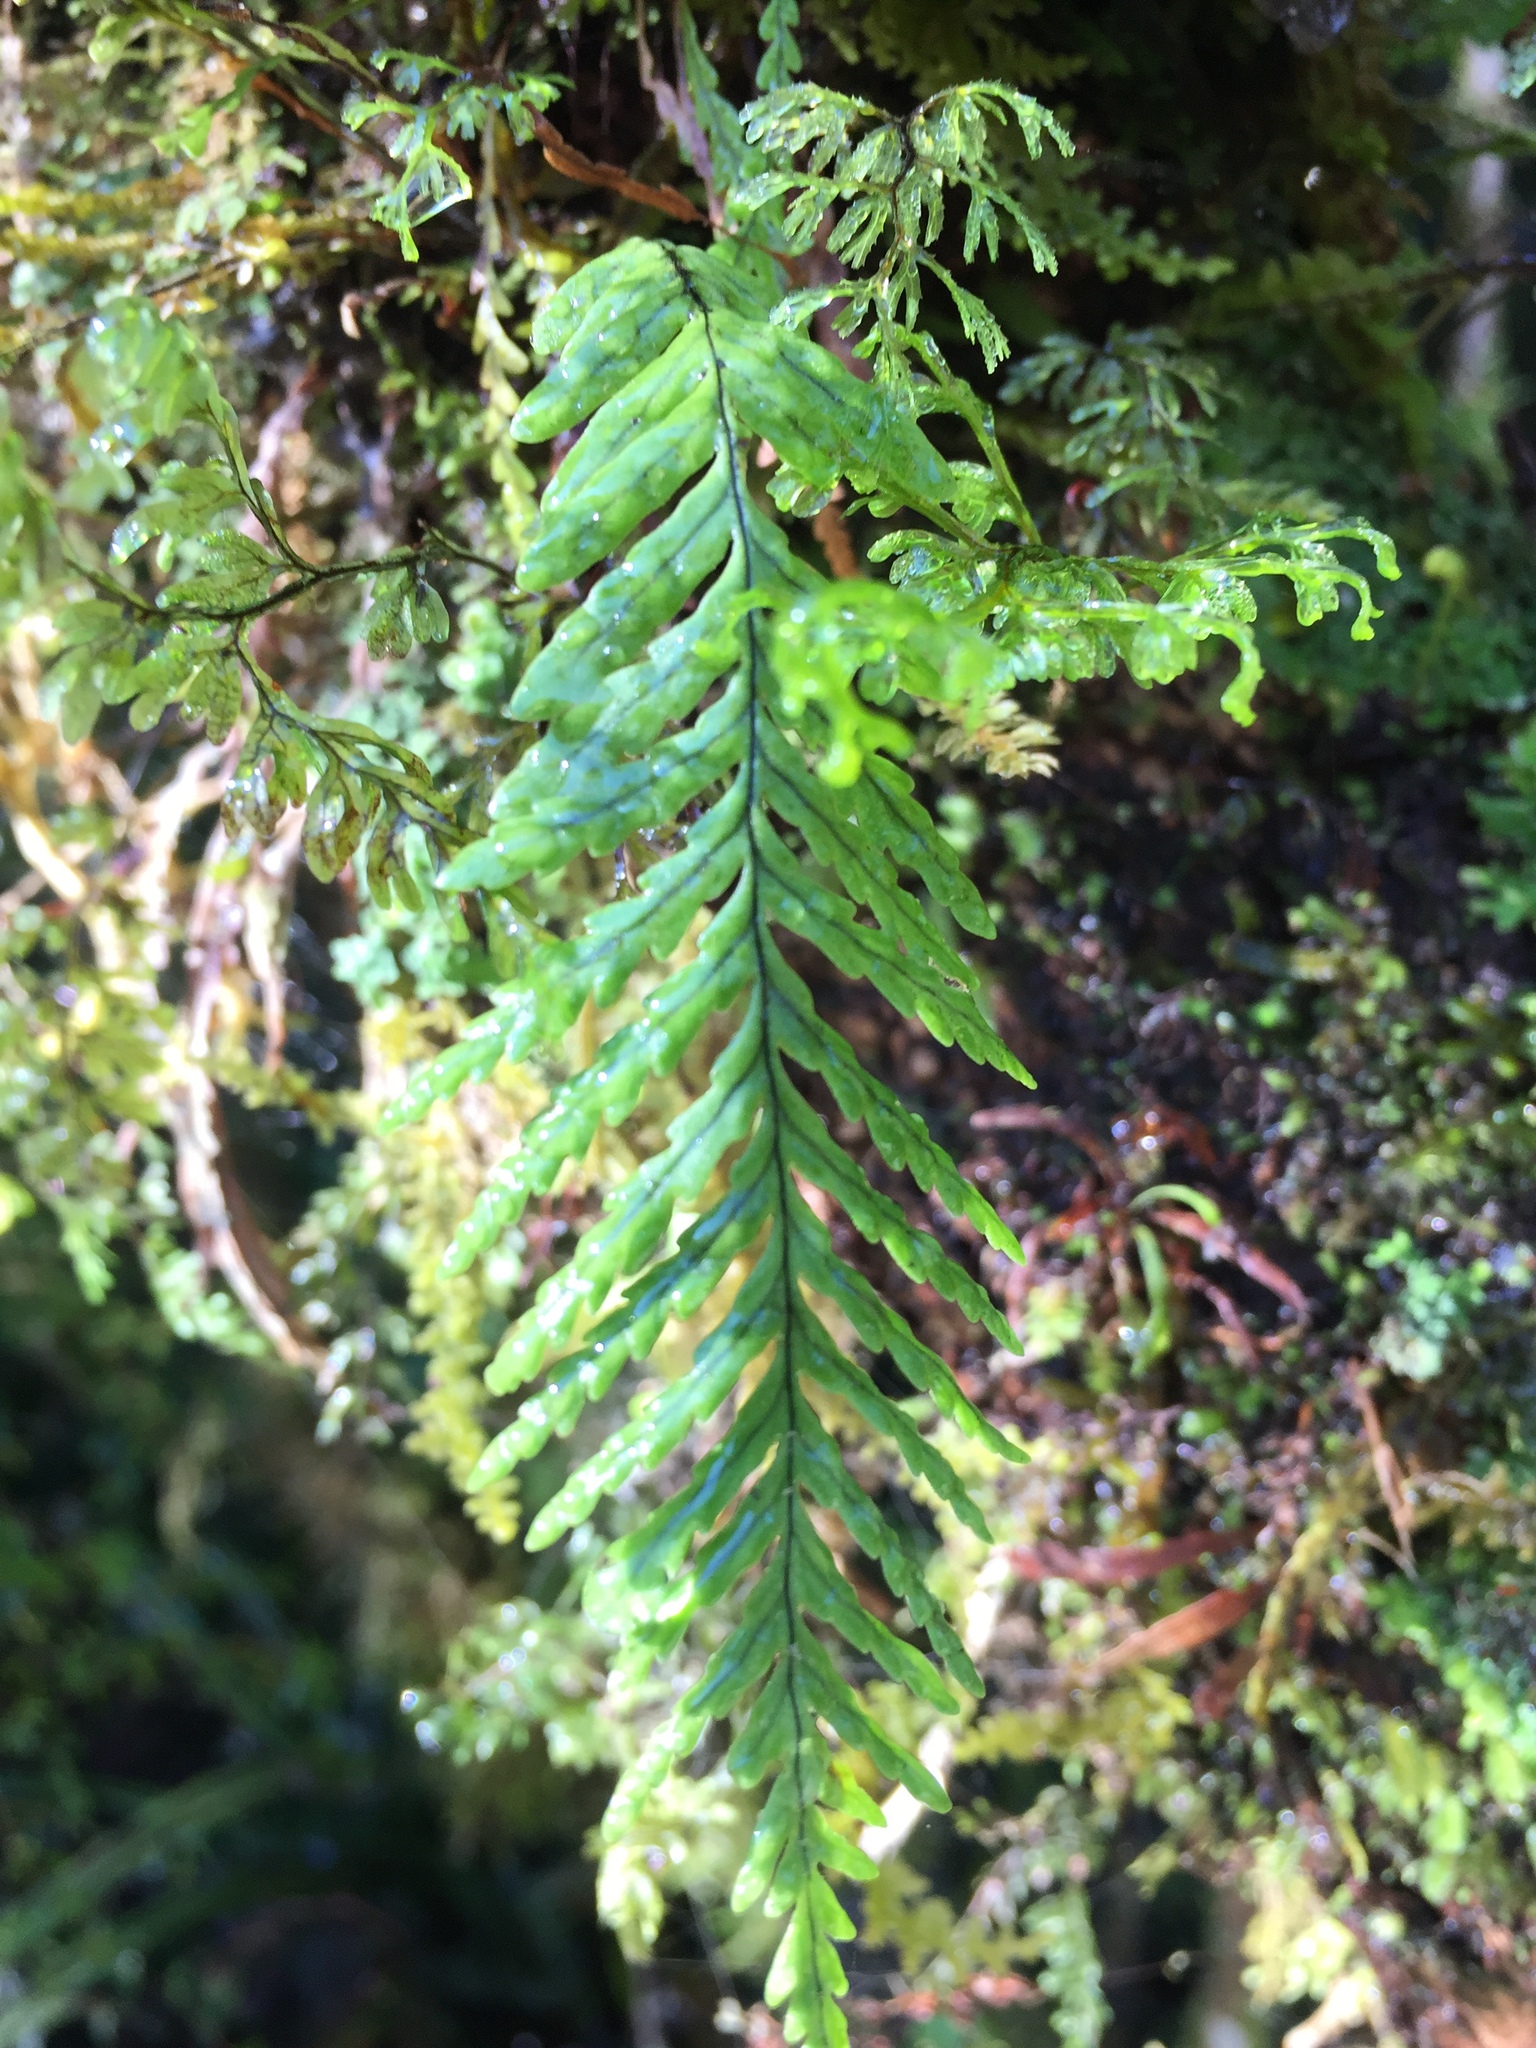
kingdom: Plantae
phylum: Tracheophyta
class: Polypodiopsida
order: Polypodiales
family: Polypodiaceae
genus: Notogrammitis
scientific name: Notogrammitis heterophylla
